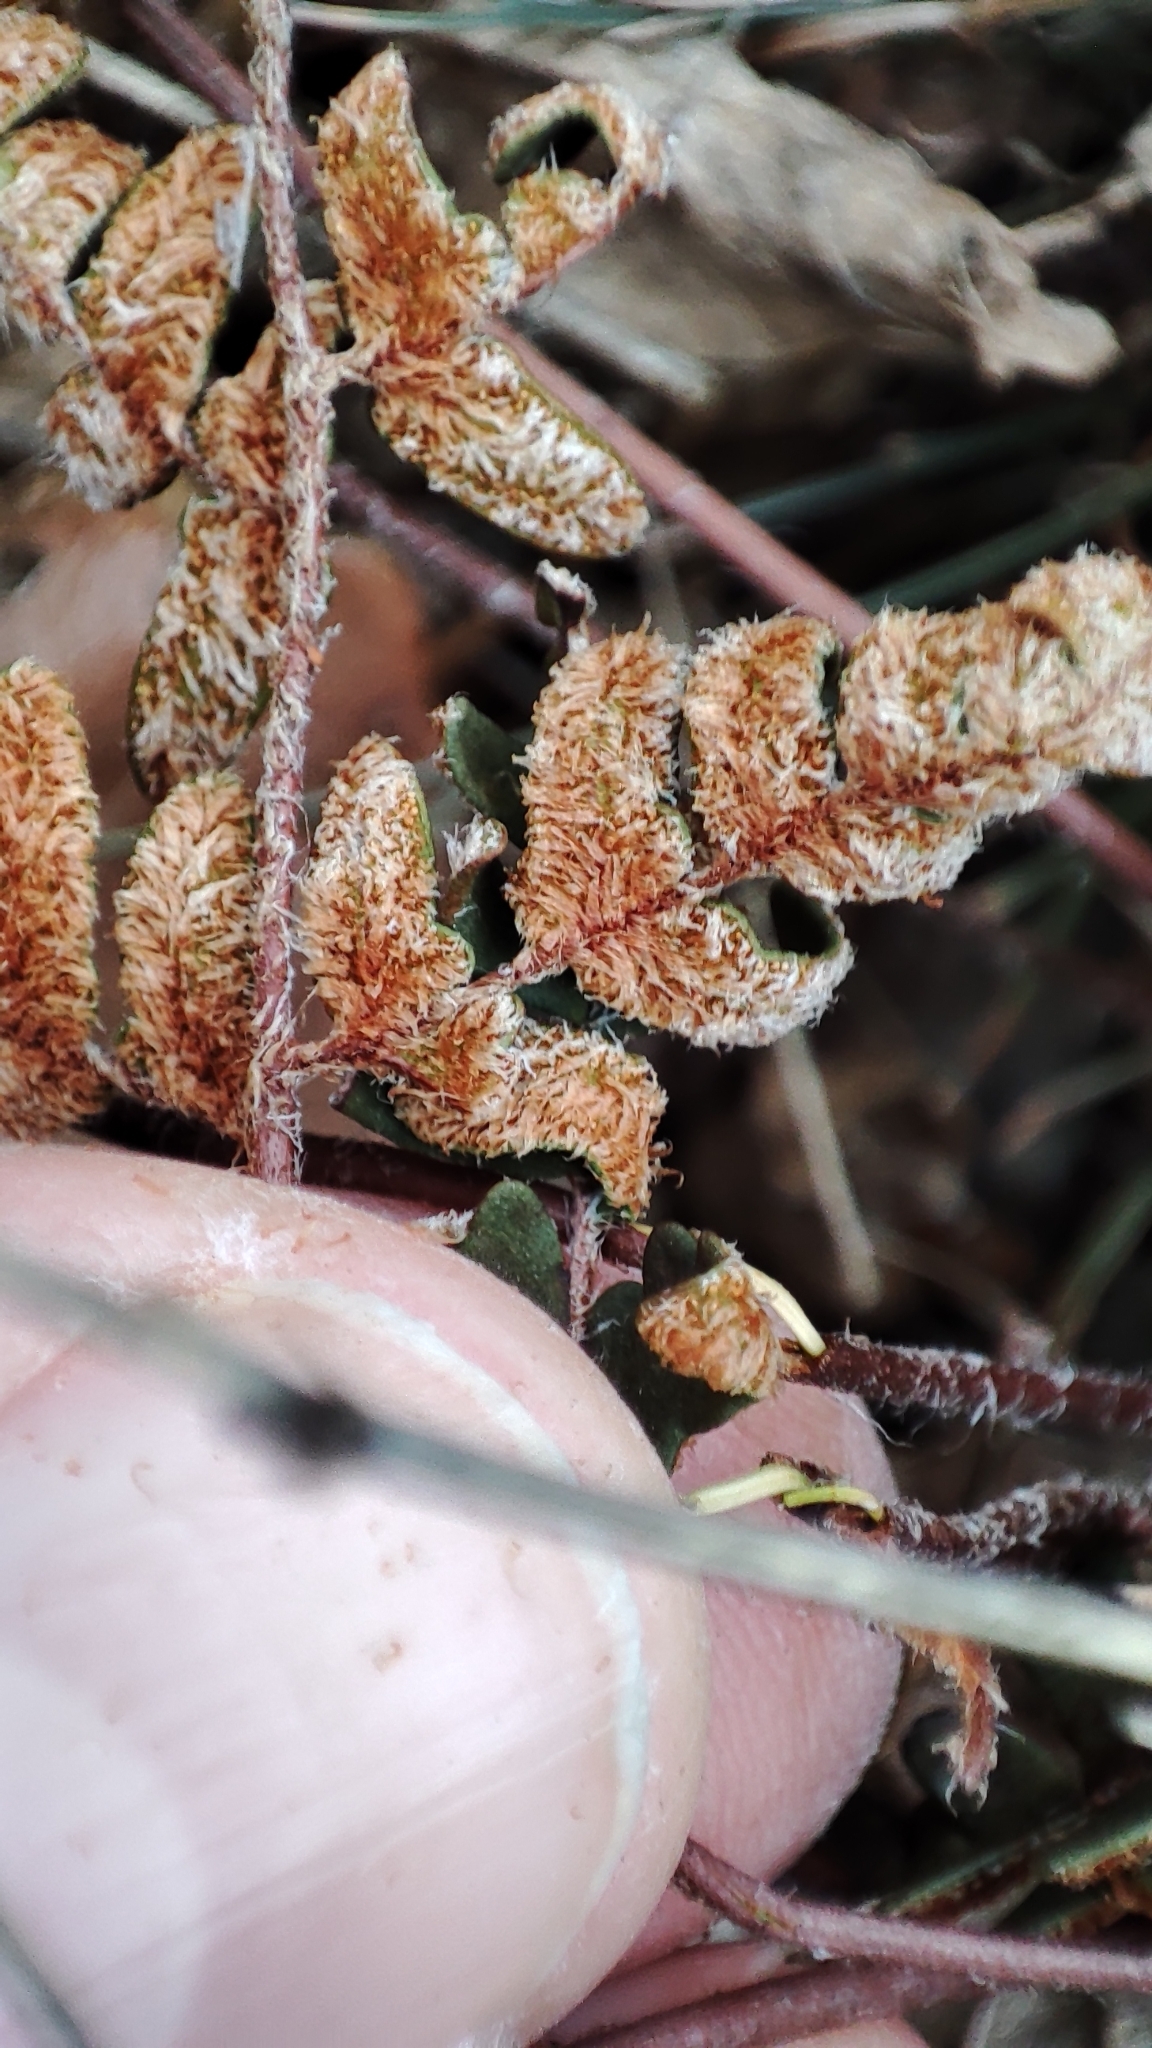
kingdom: Plantae
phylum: Tracheophyta
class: Polypodiopsida
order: Polypodiales
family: Pteridaceae
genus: Paragymnopteris
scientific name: Paragymnopteris marantae
